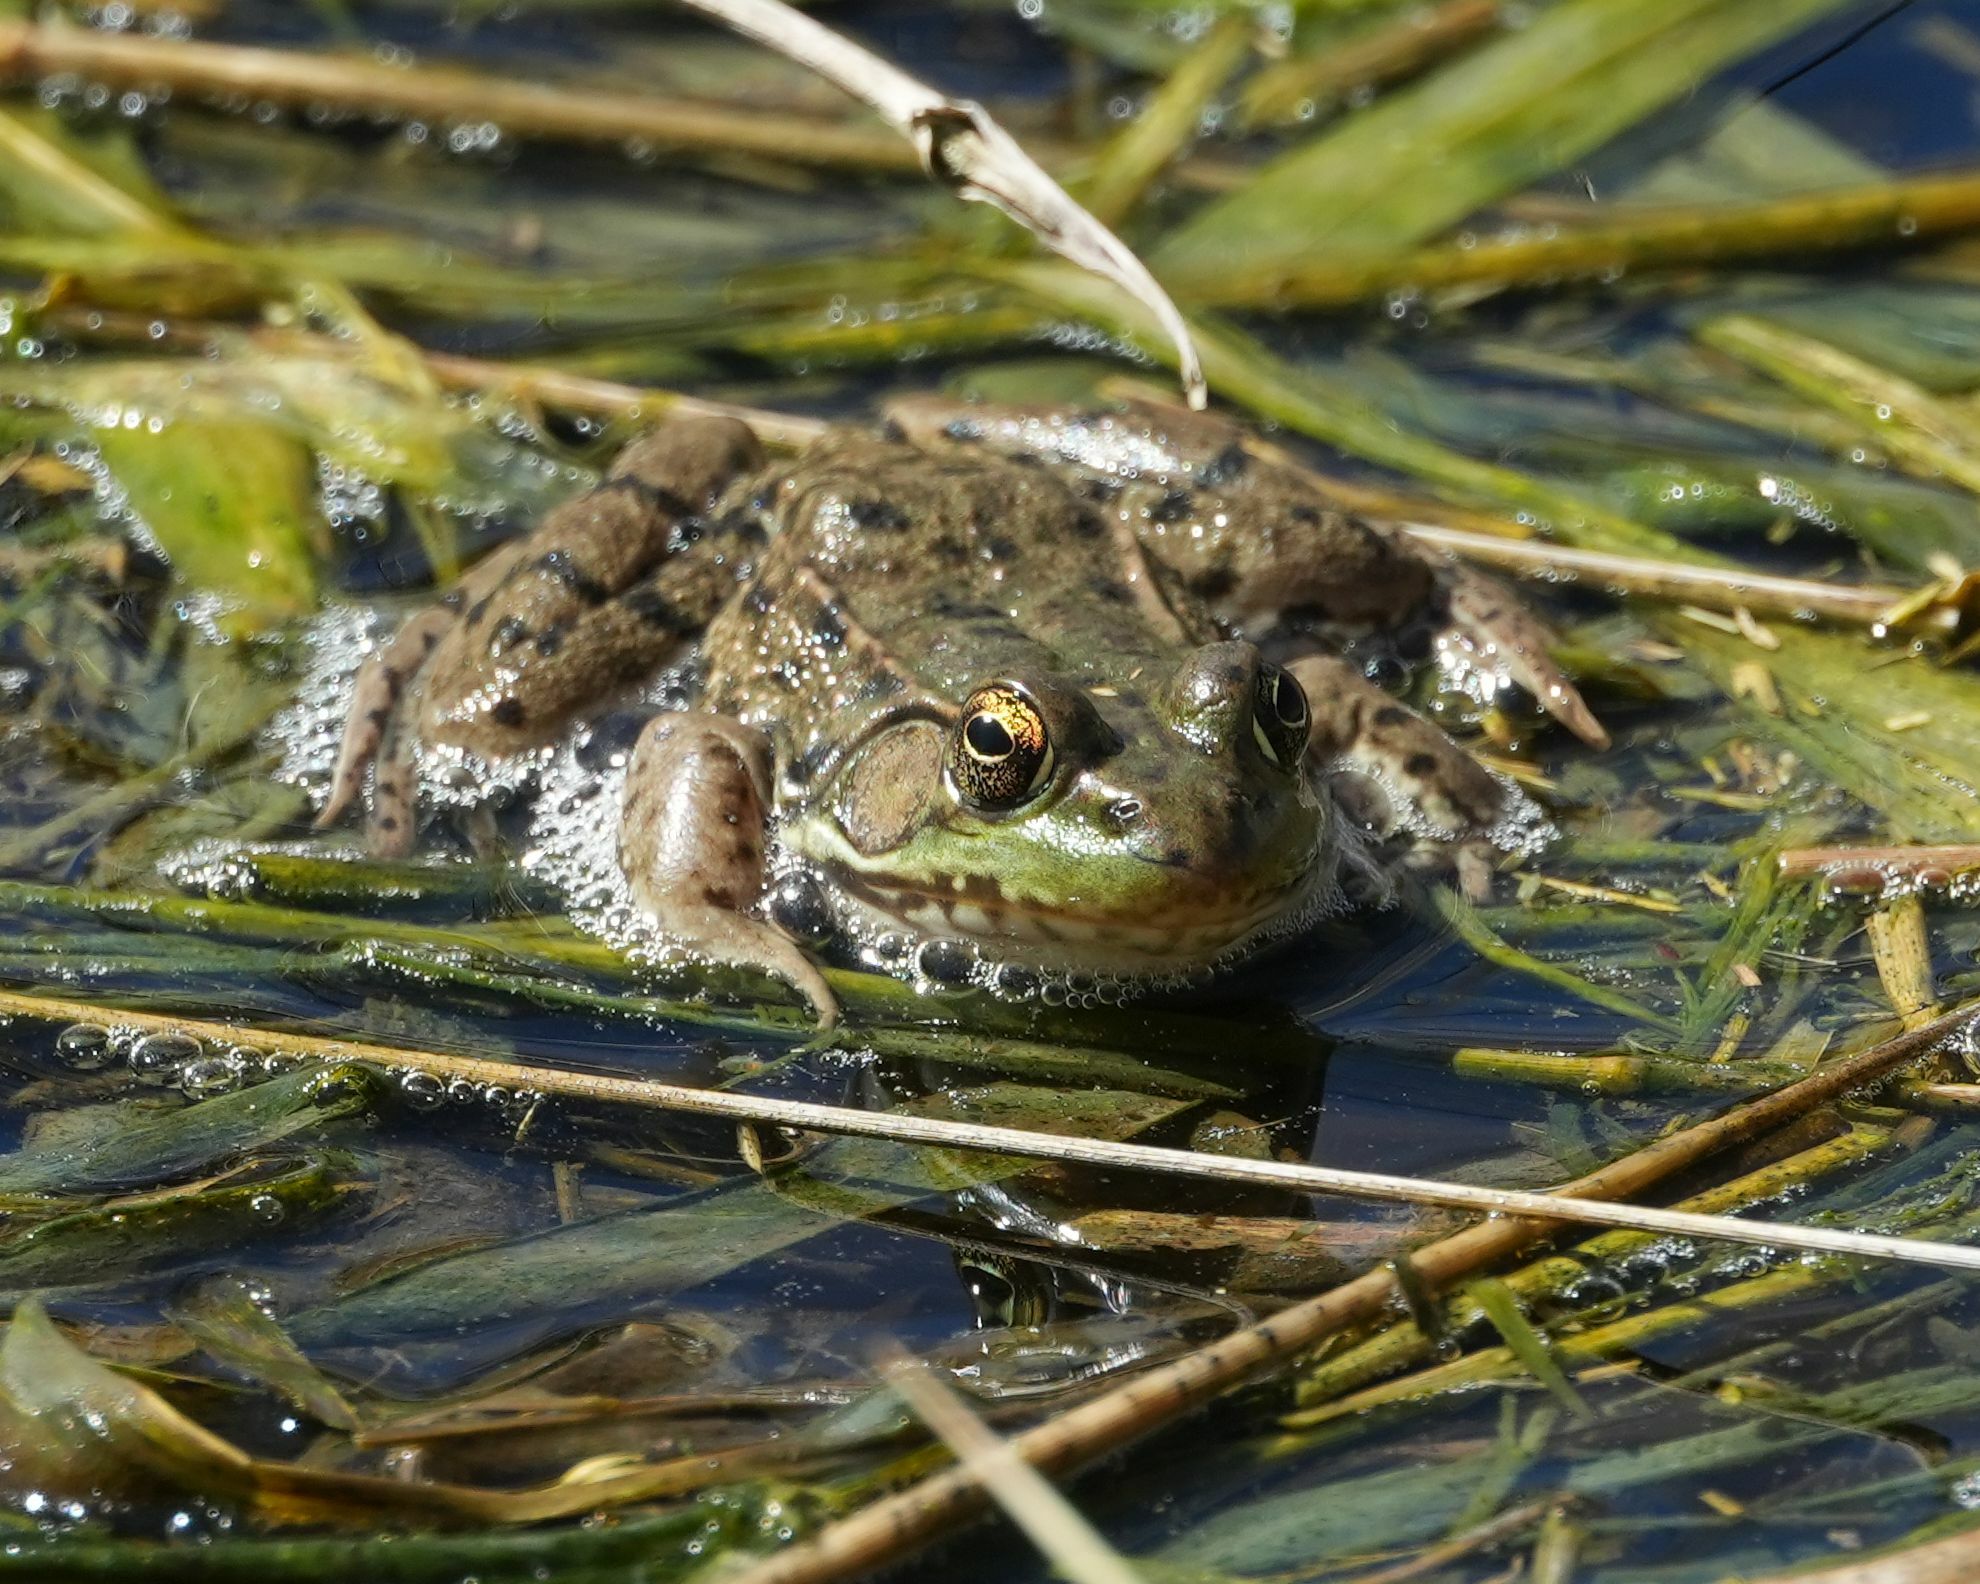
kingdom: Animalia
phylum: Chordata
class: Amphibia
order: Anura
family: Ranidae
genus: Lithobates
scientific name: Lithobates clamitans
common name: Green frog
